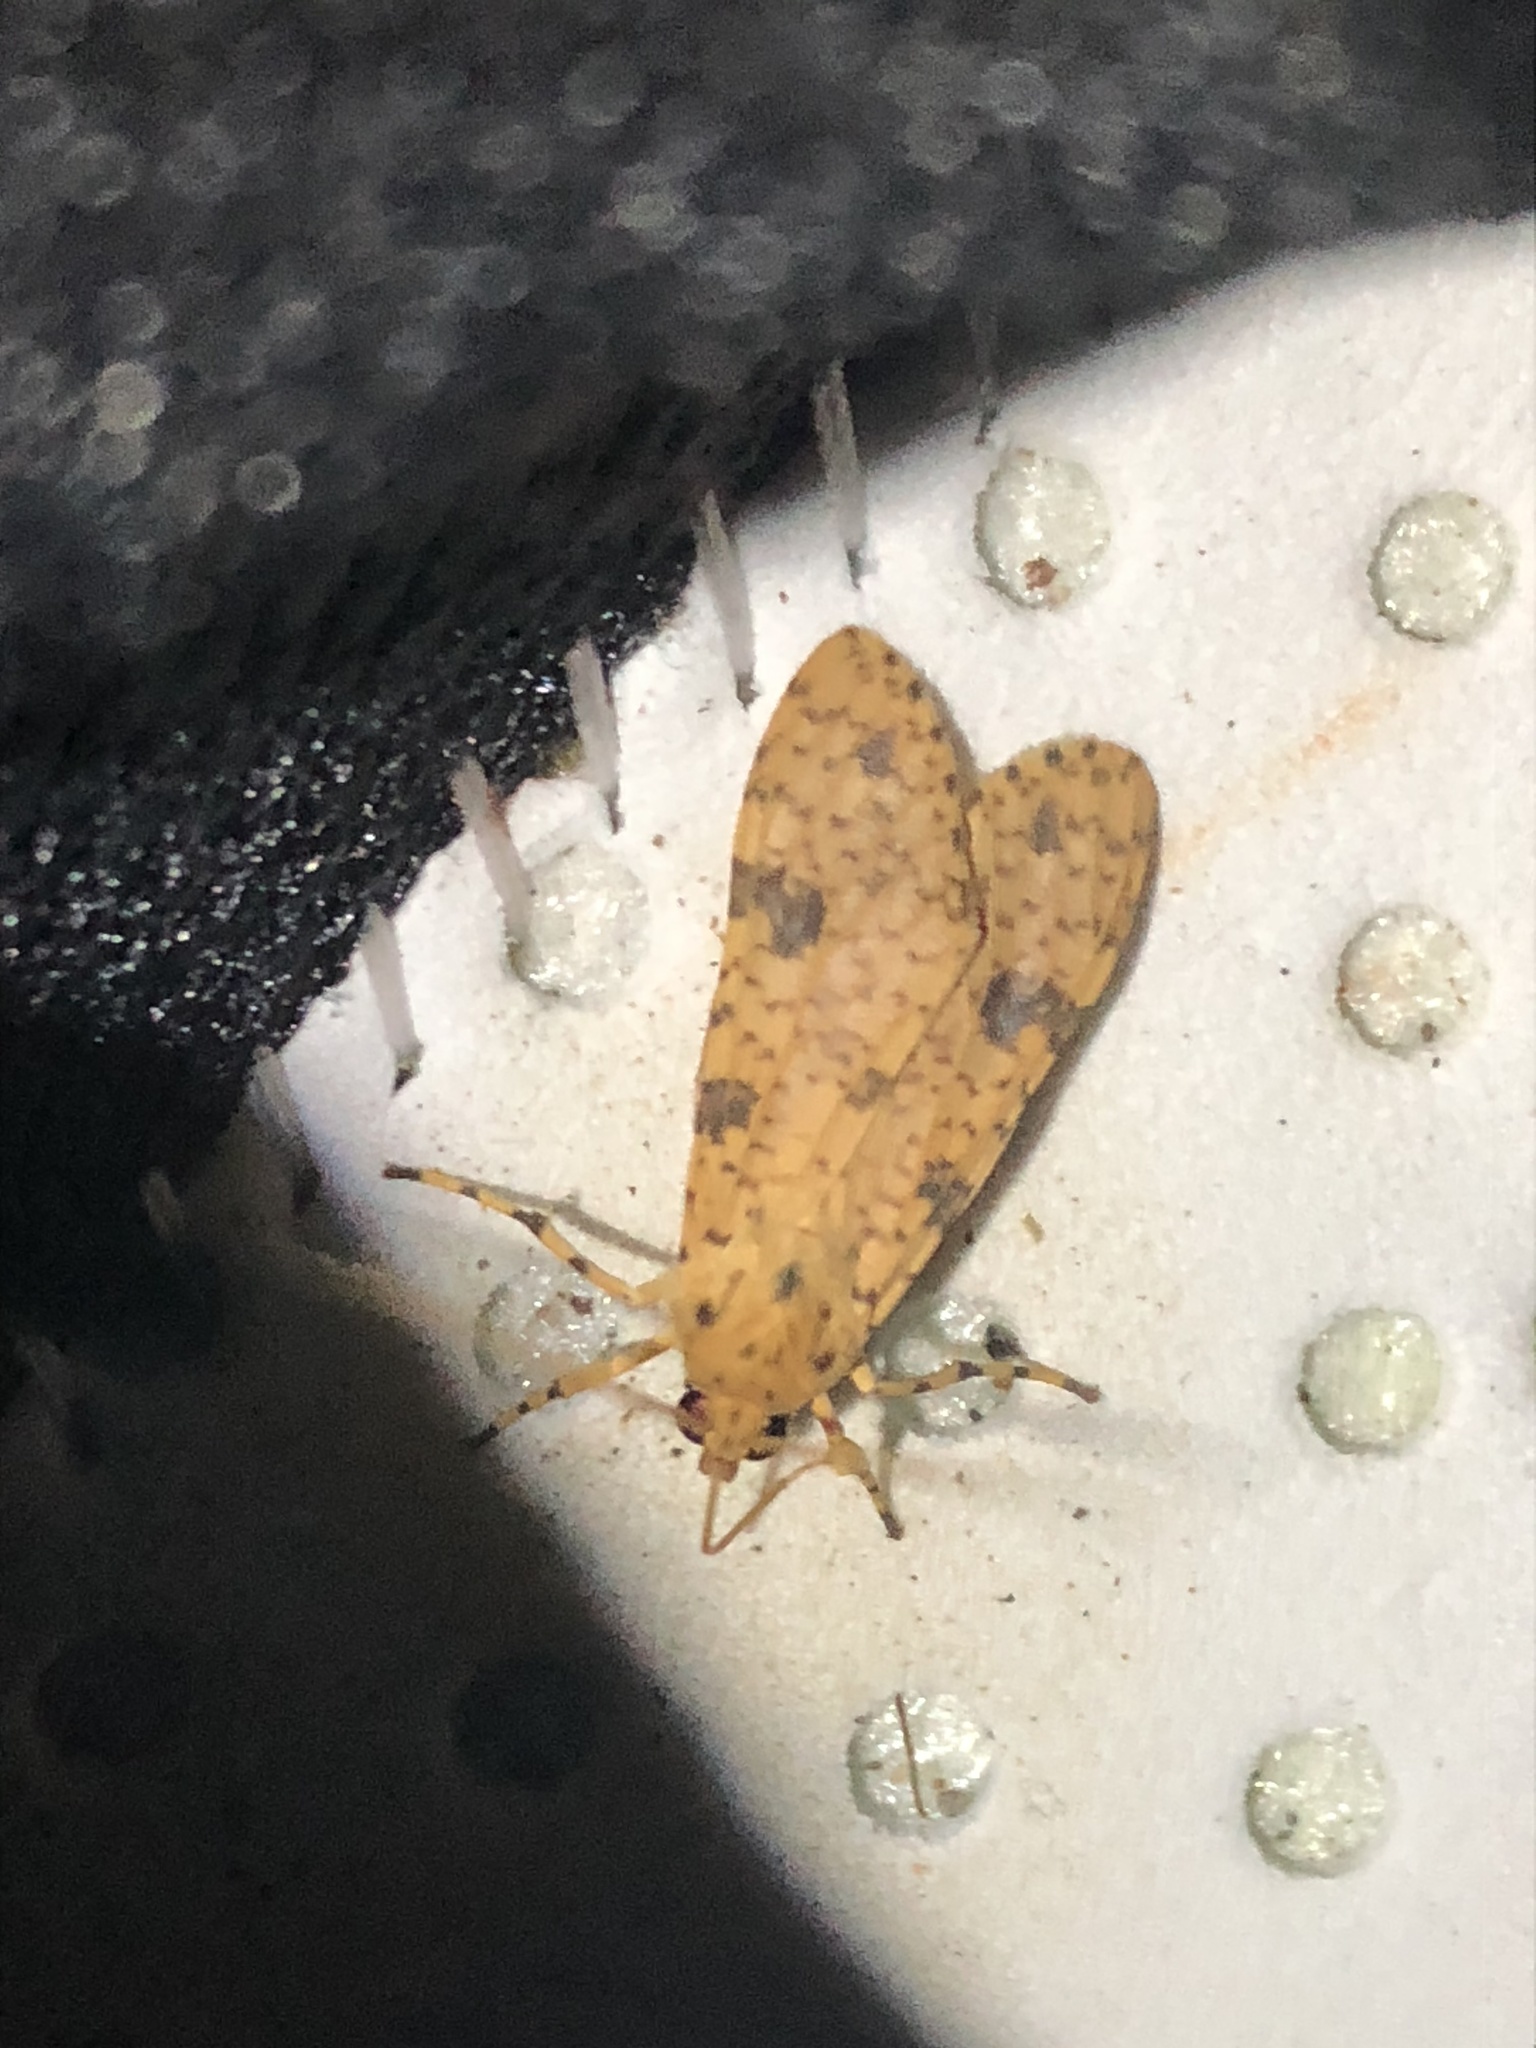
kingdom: Animalia
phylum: Arthropoda
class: Insecta
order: Lepidoptera
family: Erebidae
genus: Lophocampa
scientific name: Lophocampa modesta
